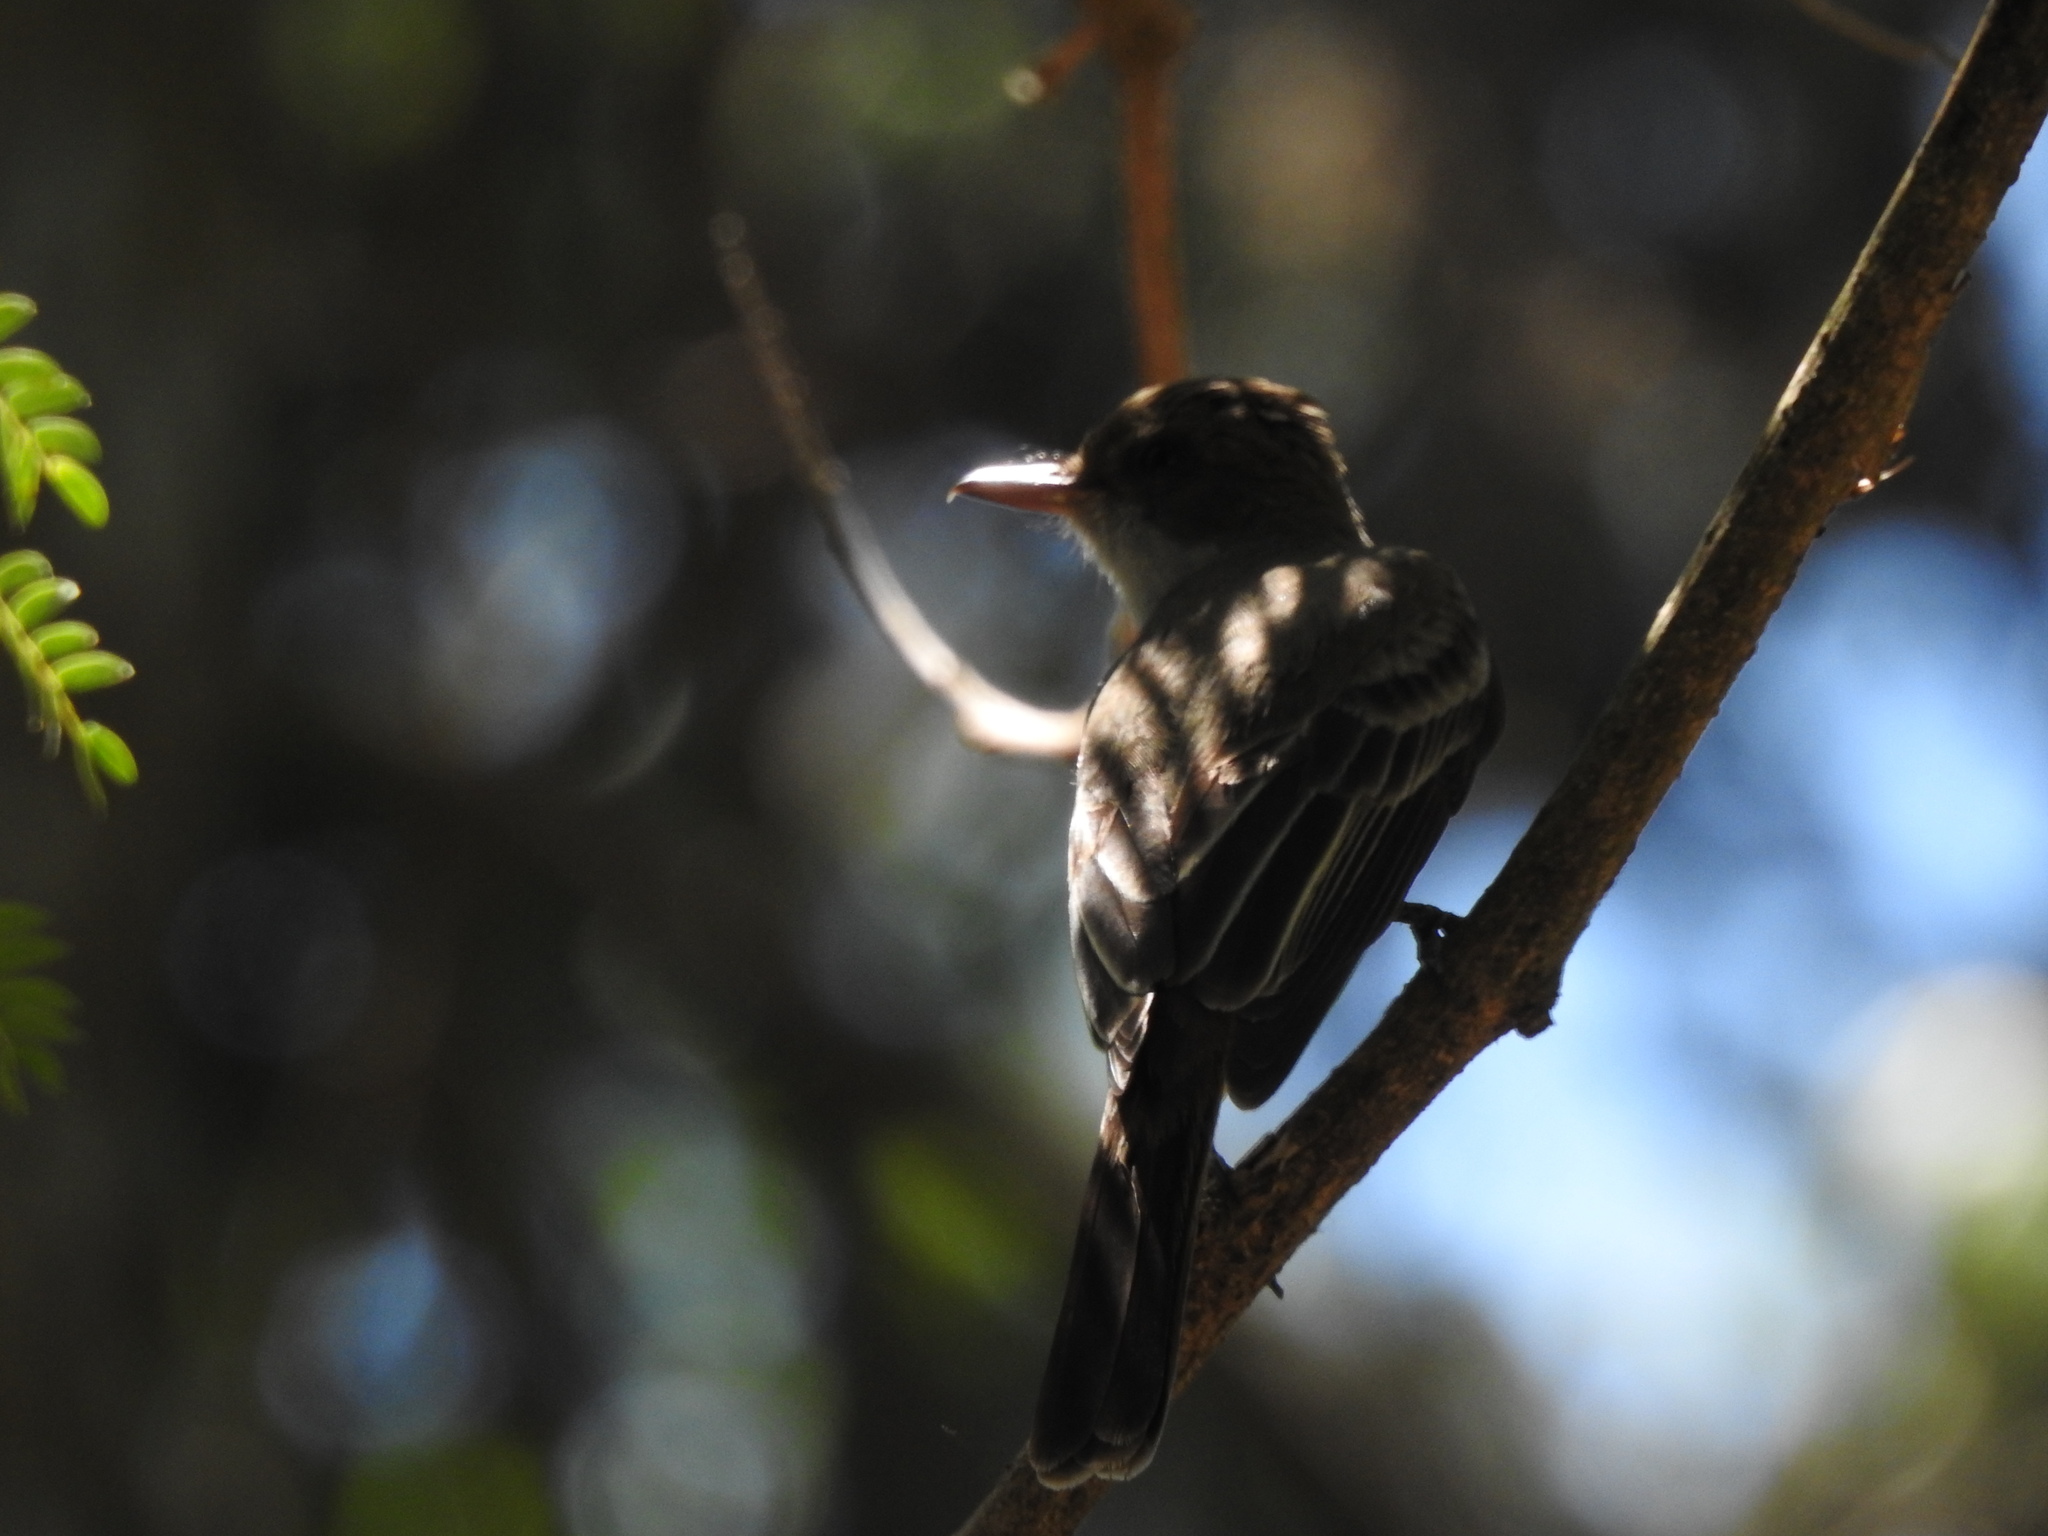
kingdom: Animalia
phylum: Chordata
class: Aves
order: Passeriformes
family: Tyrannidae
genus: Myiarchus
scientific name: Myiarchus swainsoni
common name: Swainson's flycatcher
